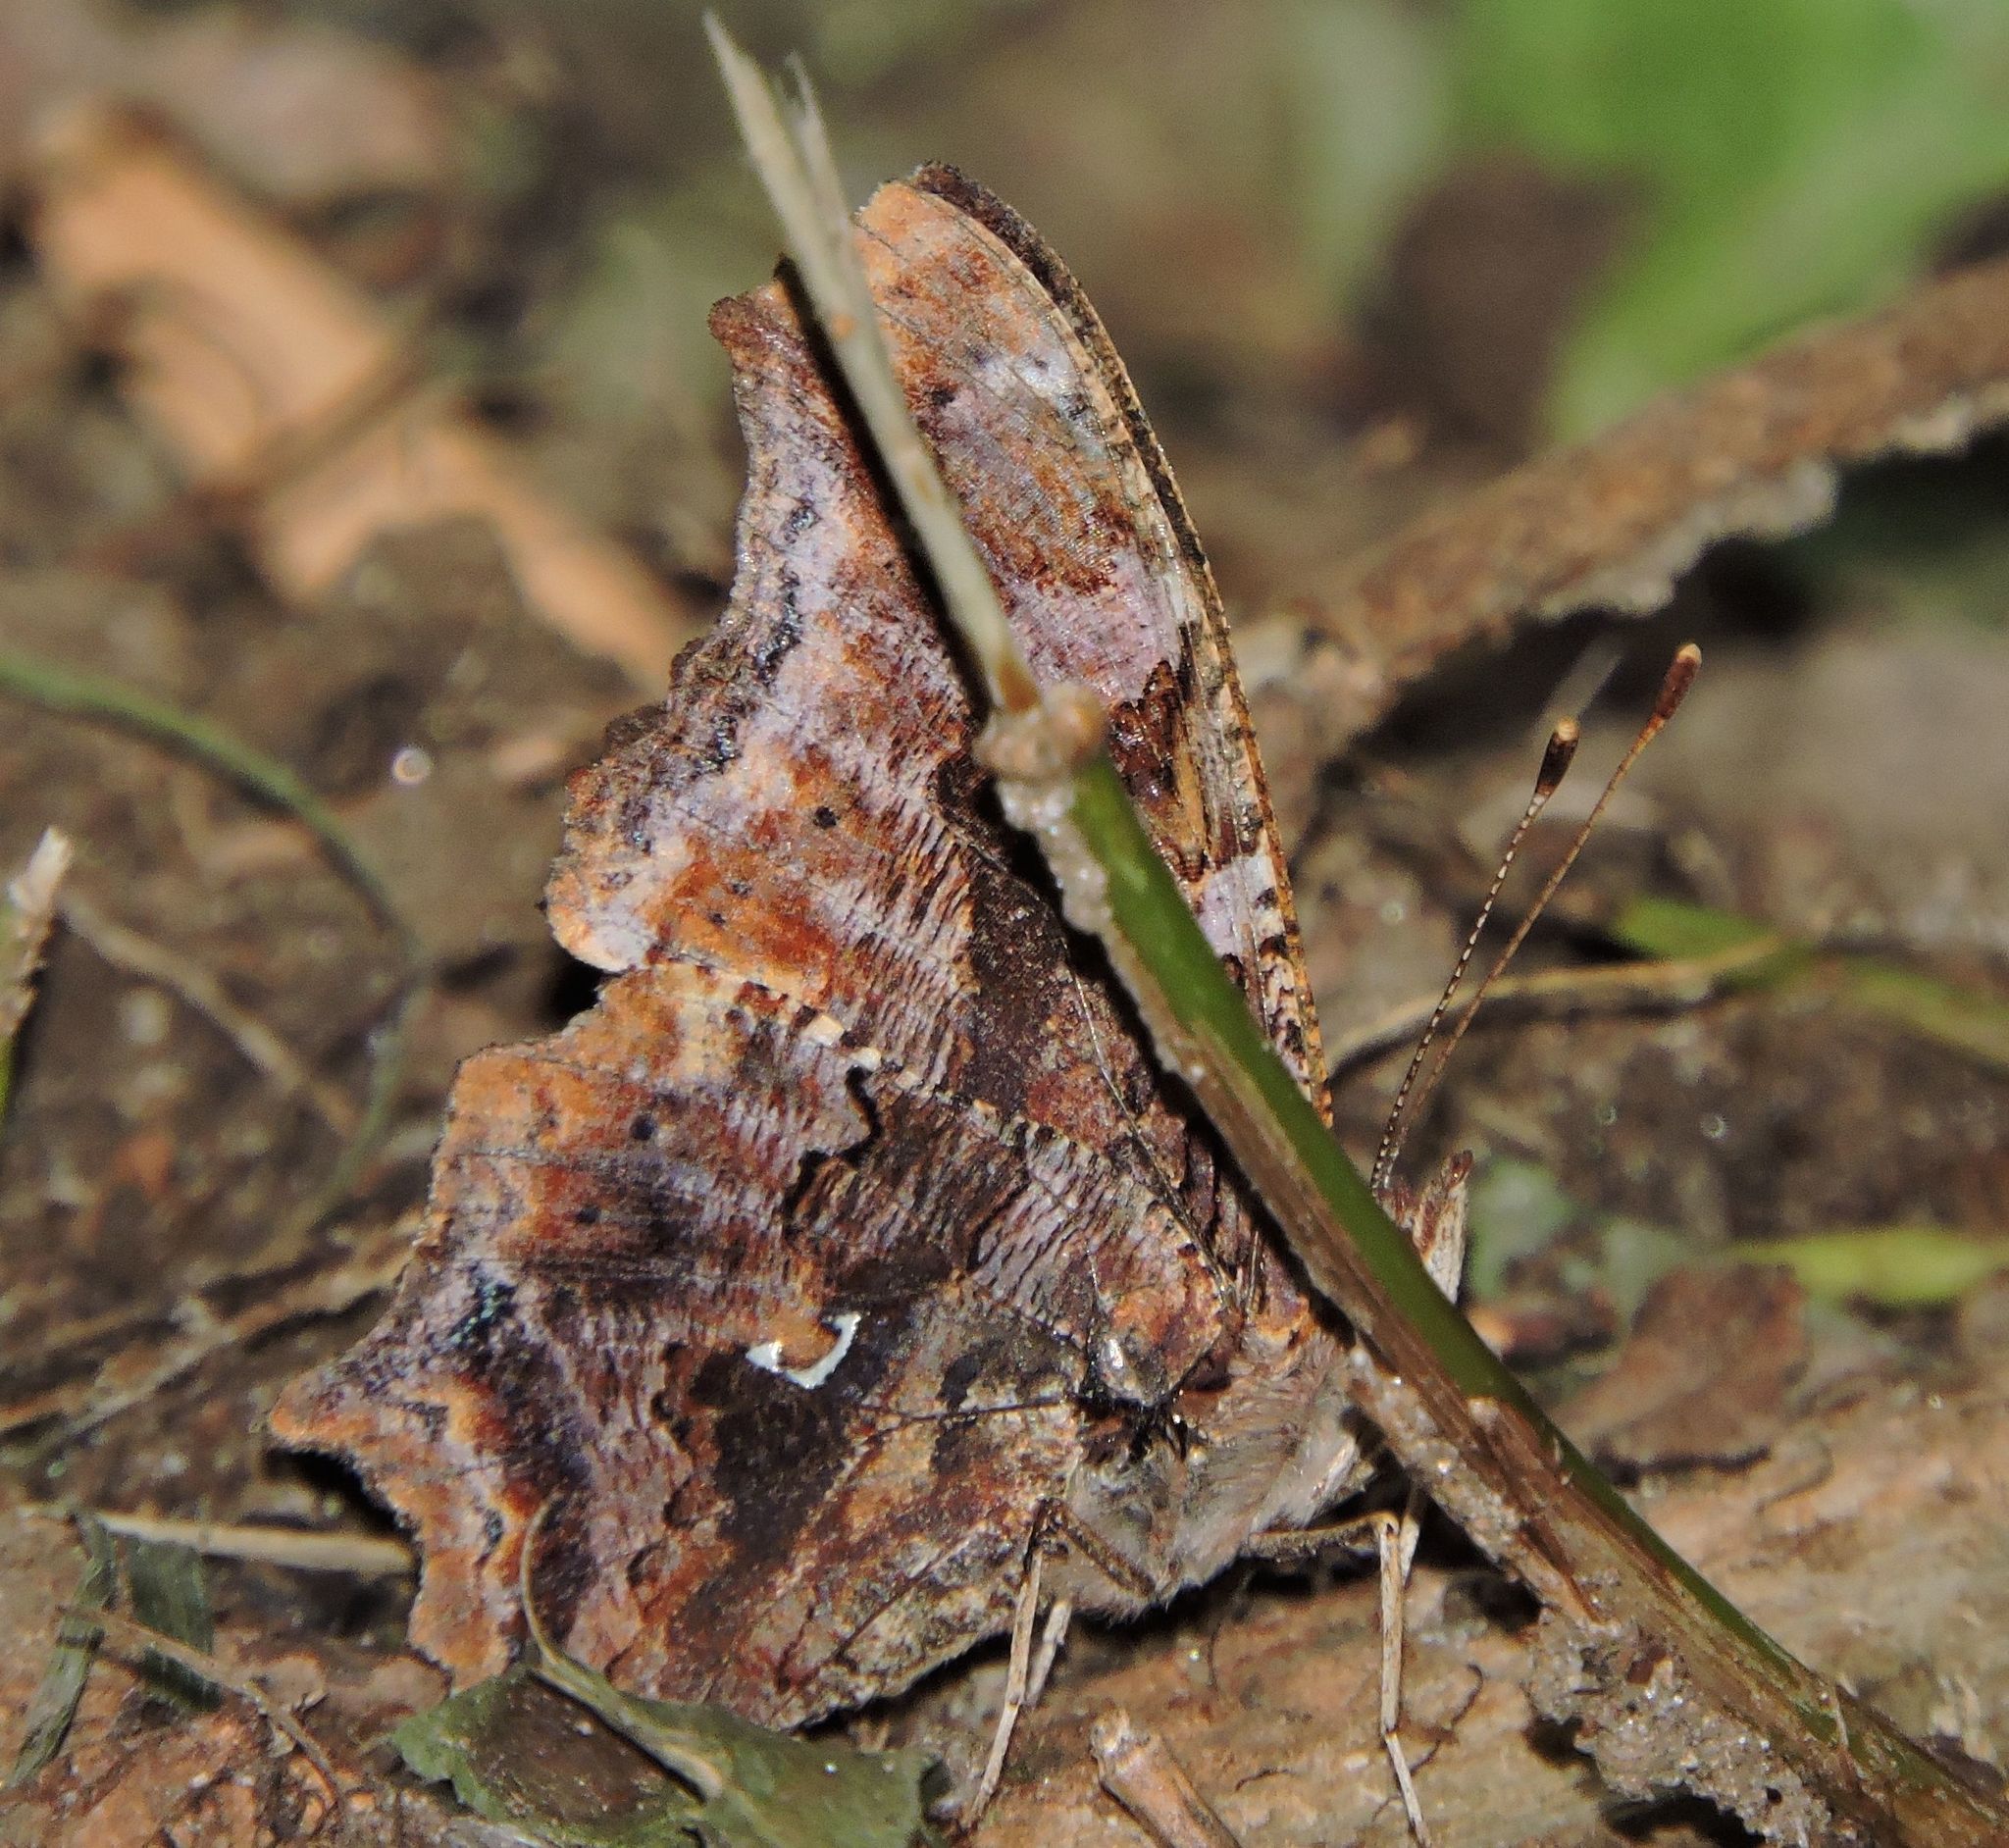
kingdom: Animalia
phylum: Arthropoda
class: Insecta
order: Lepidoptera
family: Nymphalidae
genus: Polygonia
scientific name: Polygonia comma
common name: Eastern comma
